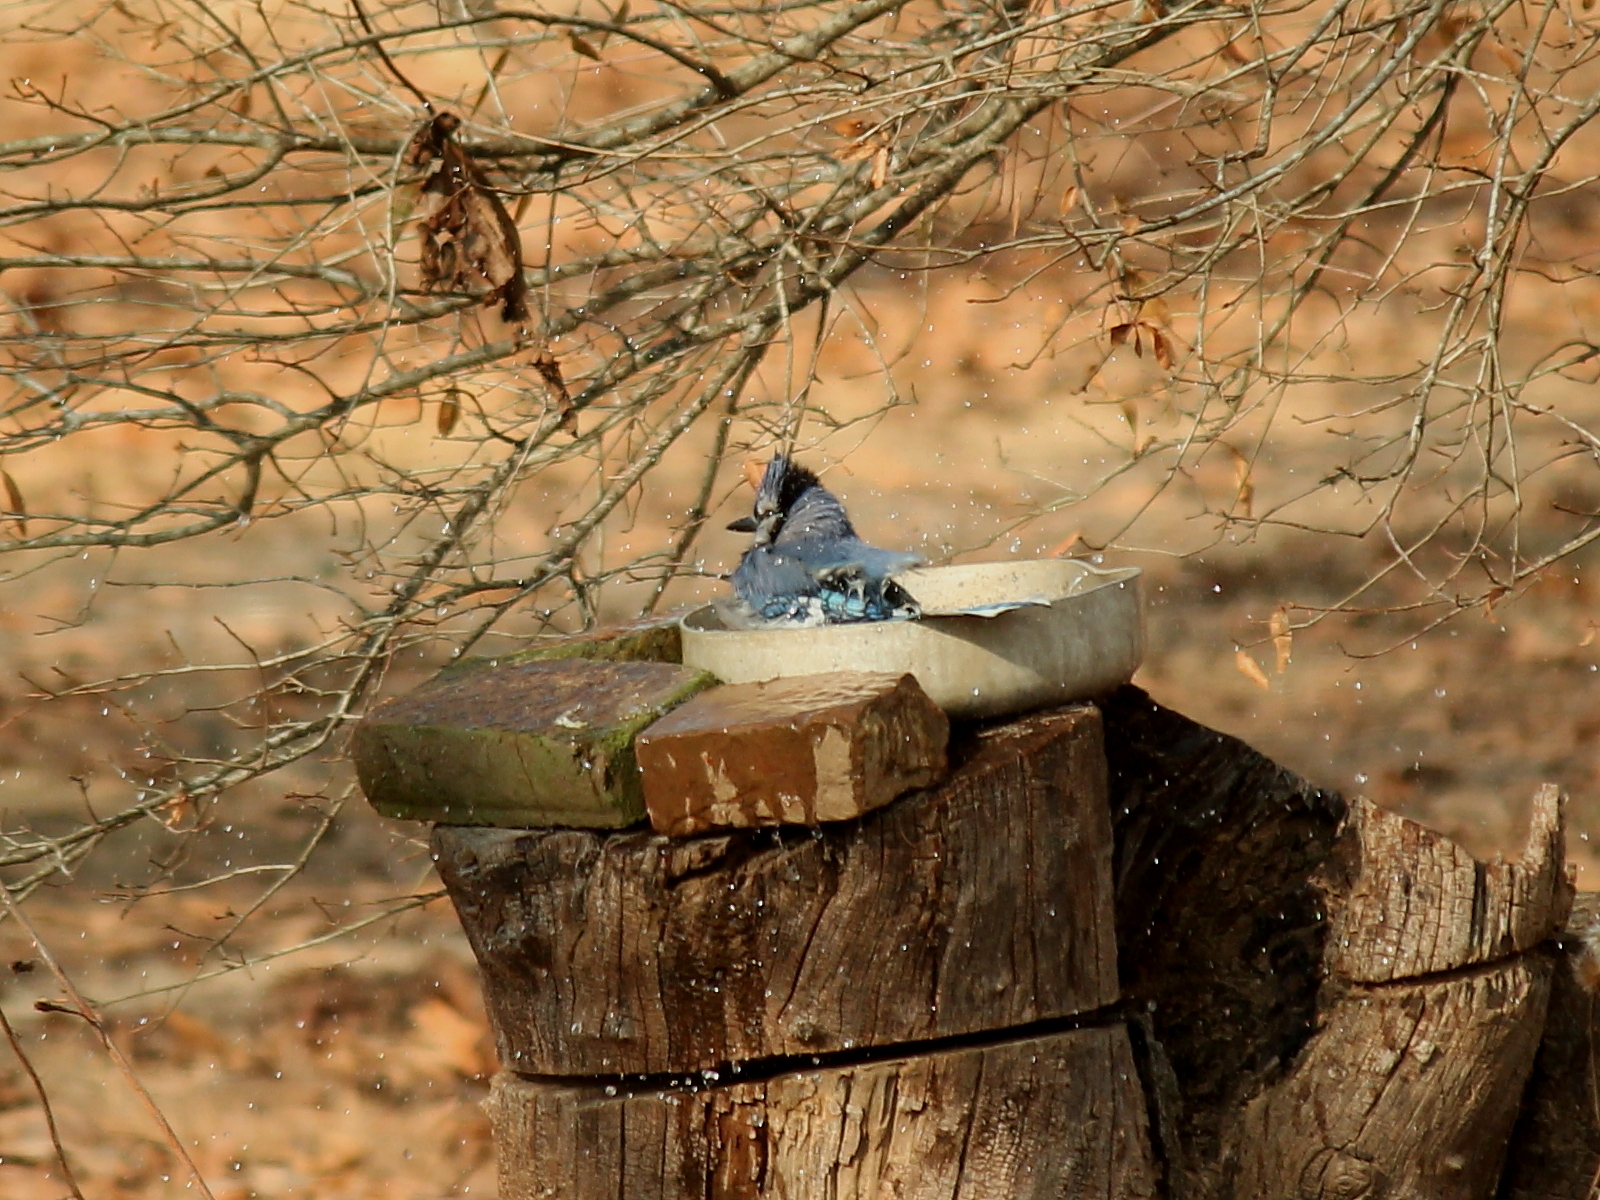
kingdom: Animalia
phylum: Chordata
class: Aves
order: Passeriformes
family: Corvidae
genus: Cyanocitta
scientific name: Cyanocitta cristata
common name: Blue jay
